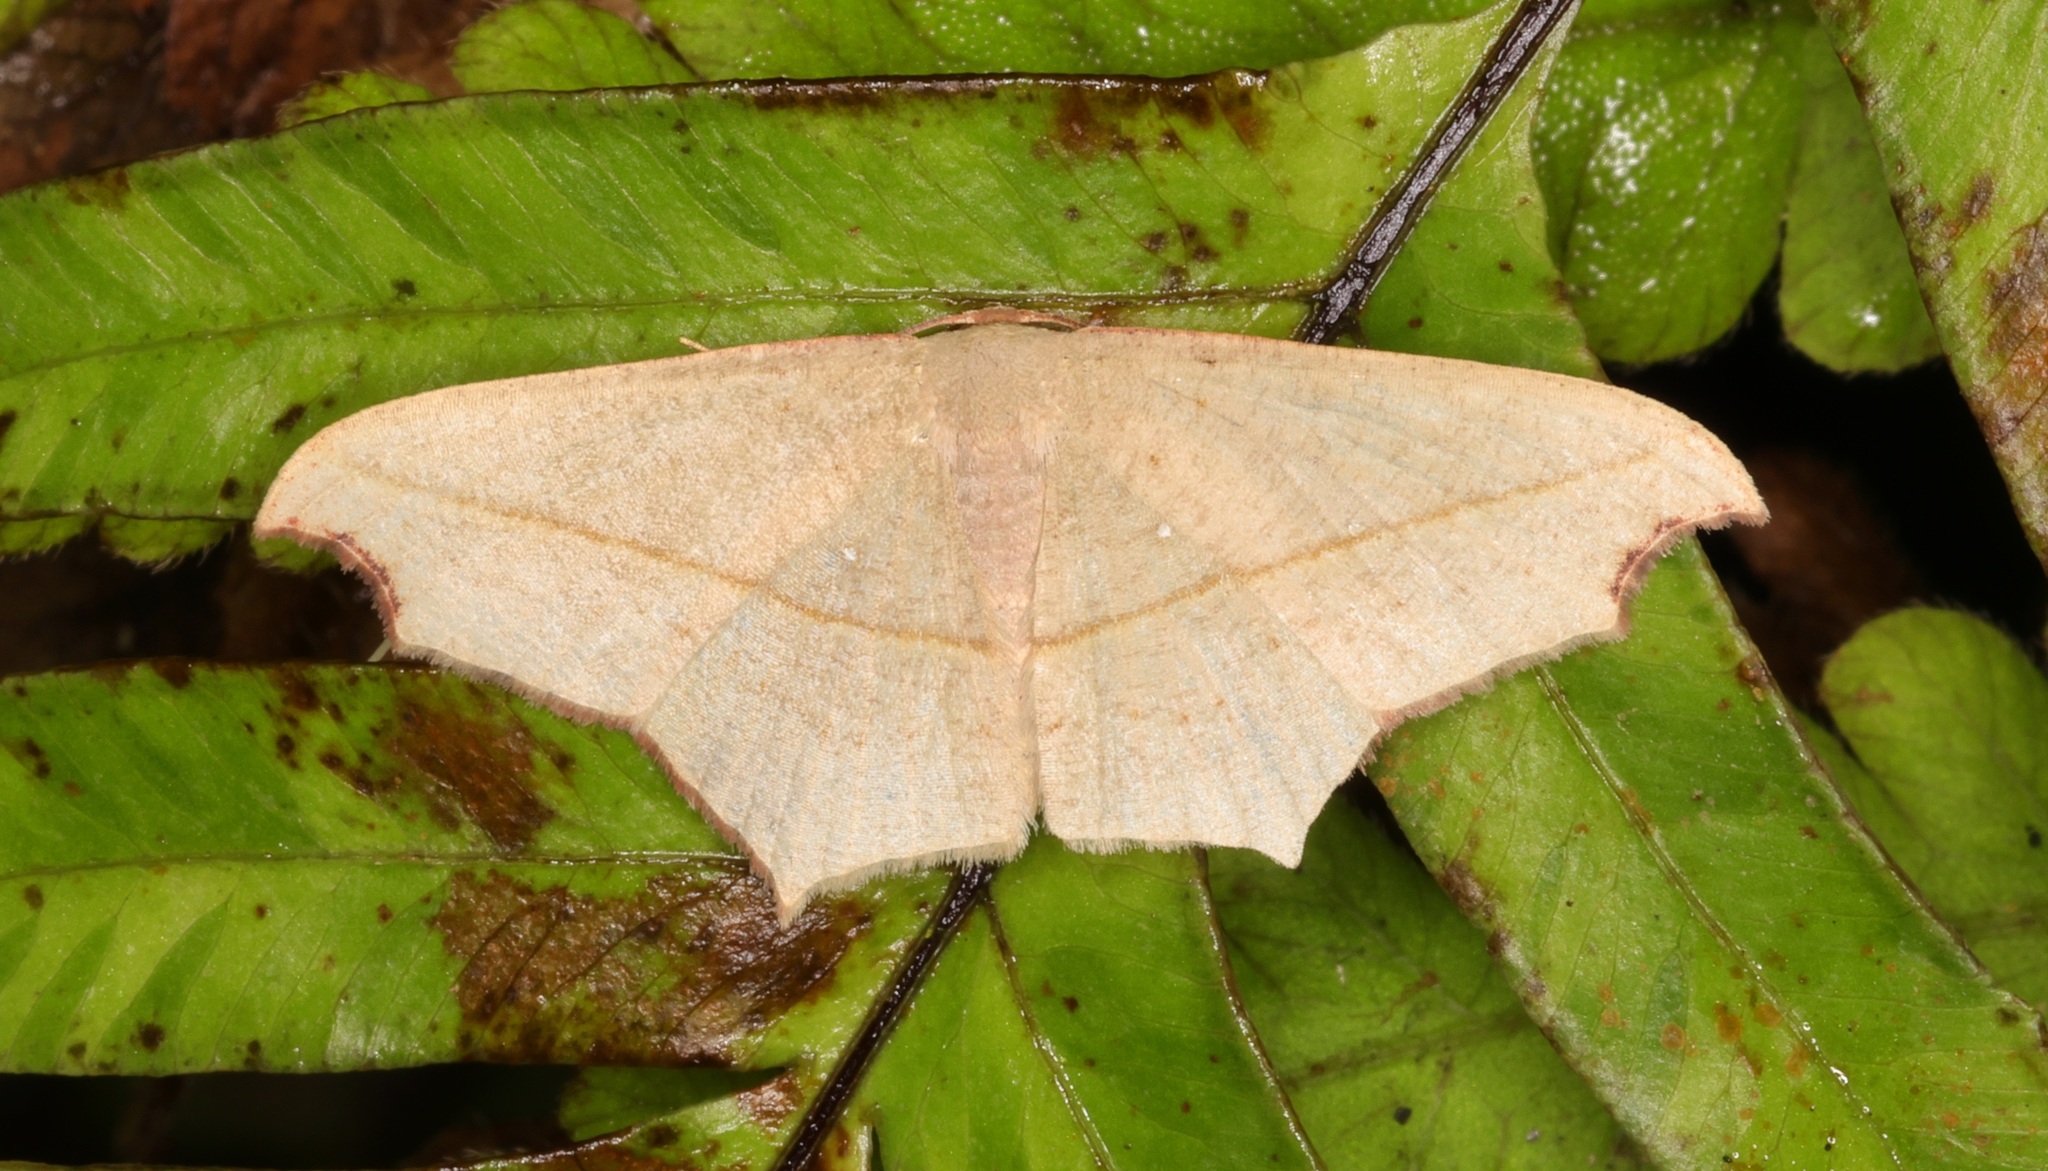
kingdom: Animalia
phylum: Arthropoda
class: Insecta
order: Lepidoptera
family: Geometridae
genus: Traminda
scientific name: Traminda aventiaria
